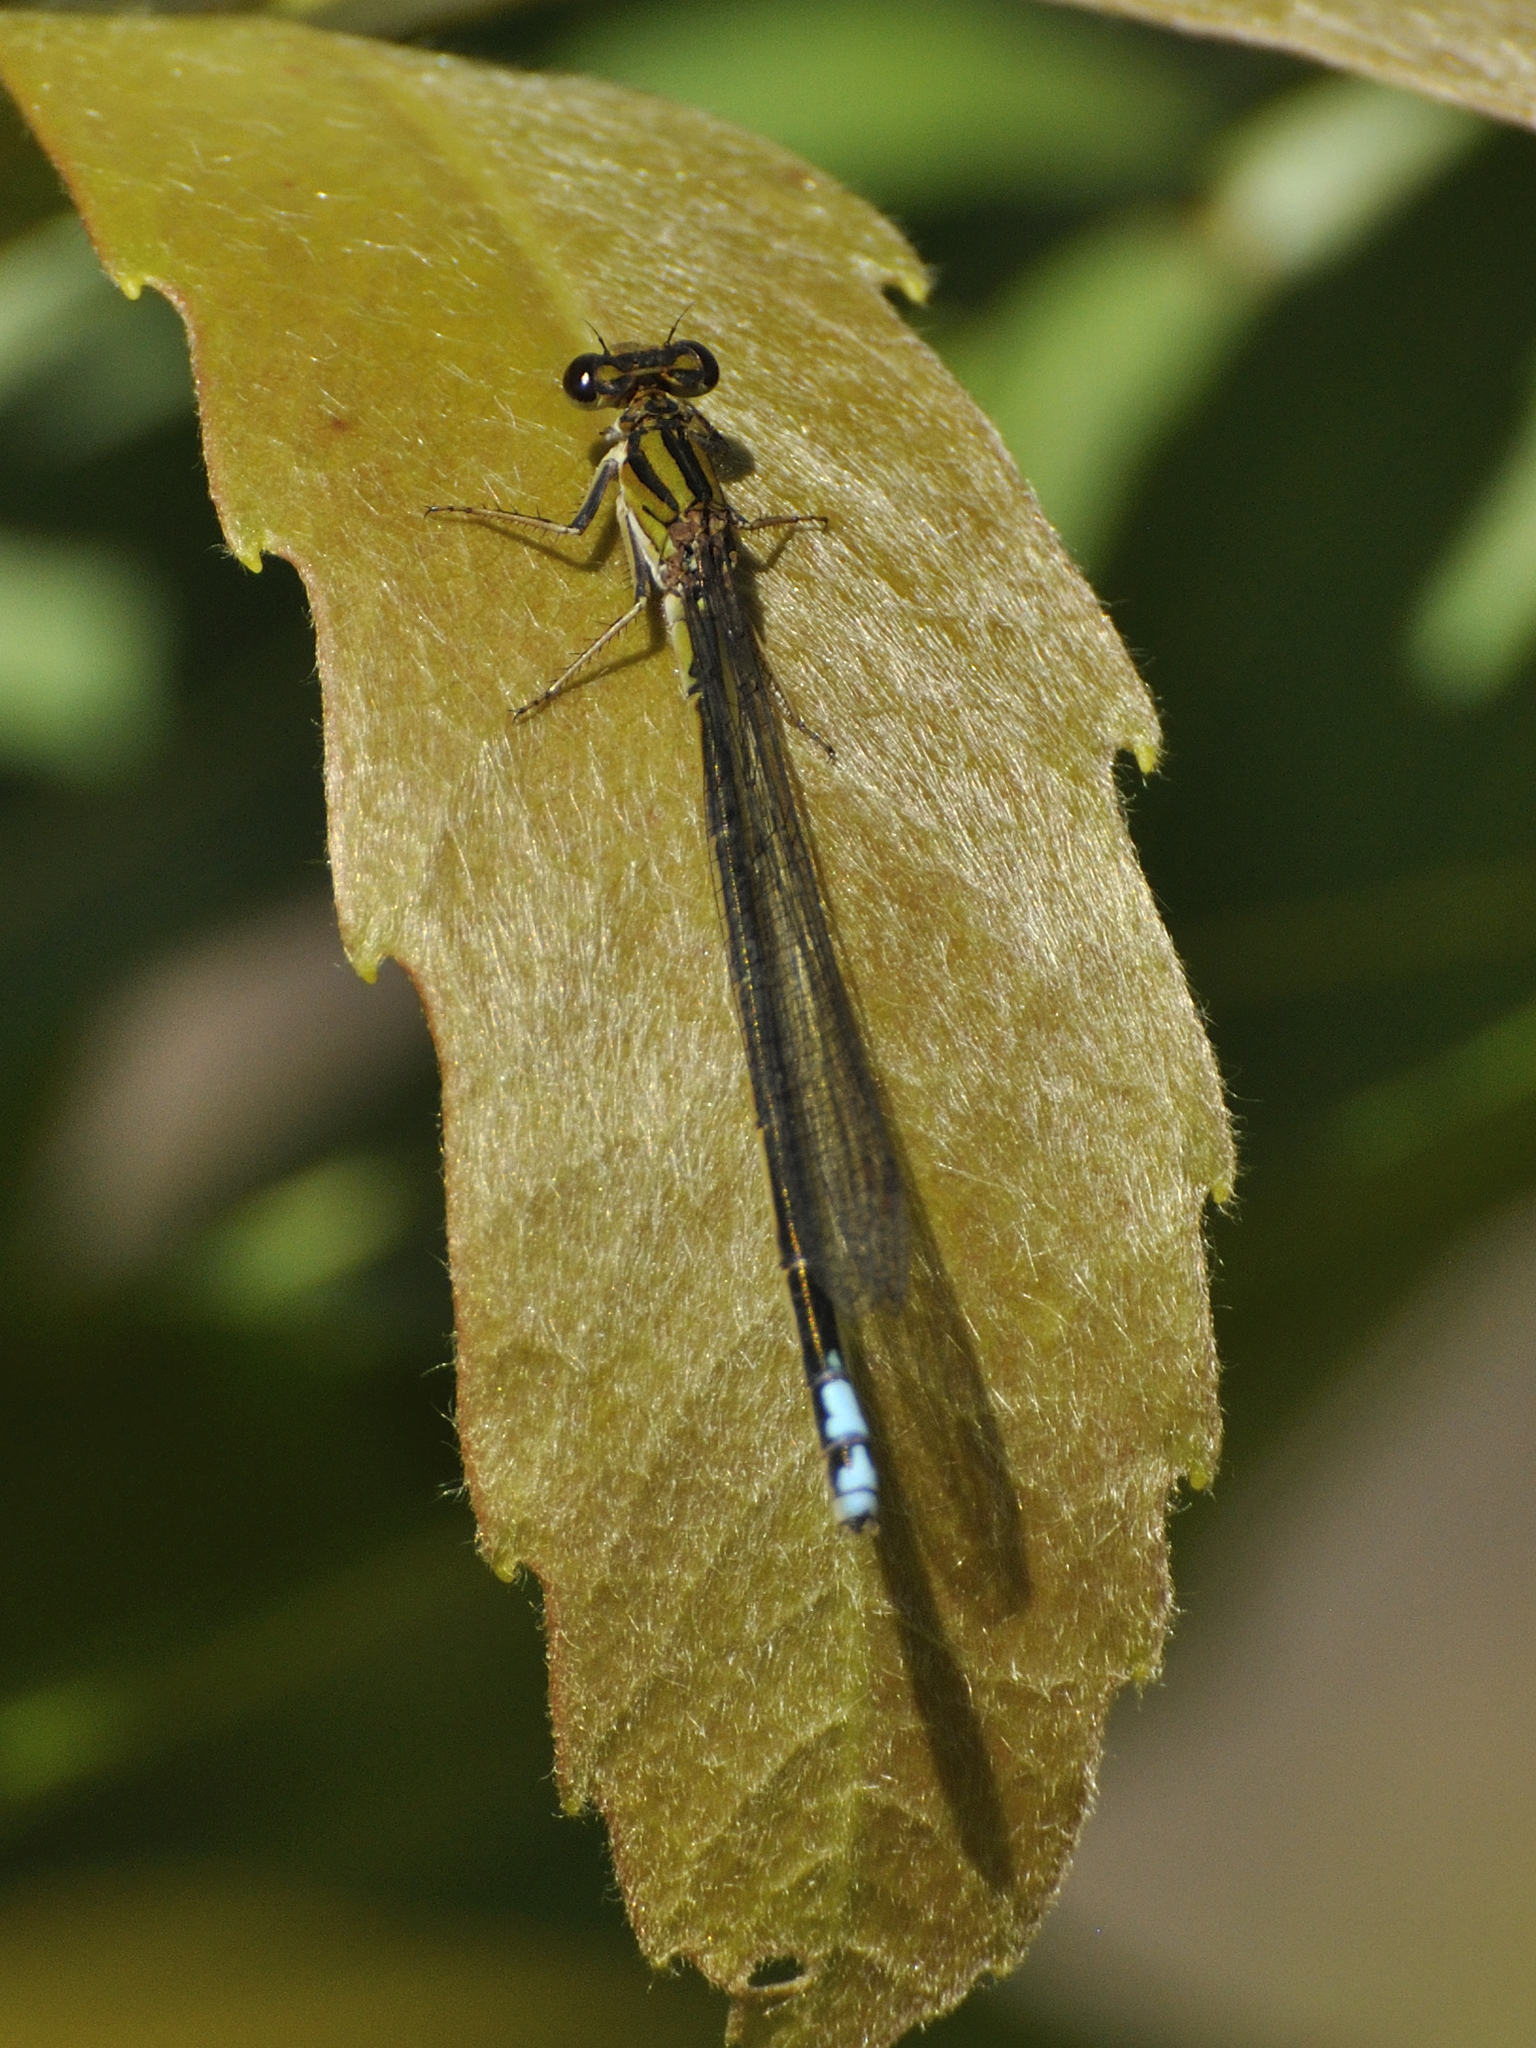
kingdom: Animalia
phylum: Arthropoda
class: Insecta
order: Odonata
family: Coenagrionidae
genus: Pseudagrion
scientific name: Pseudagrion furcigerum
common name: Palmiet sprite
